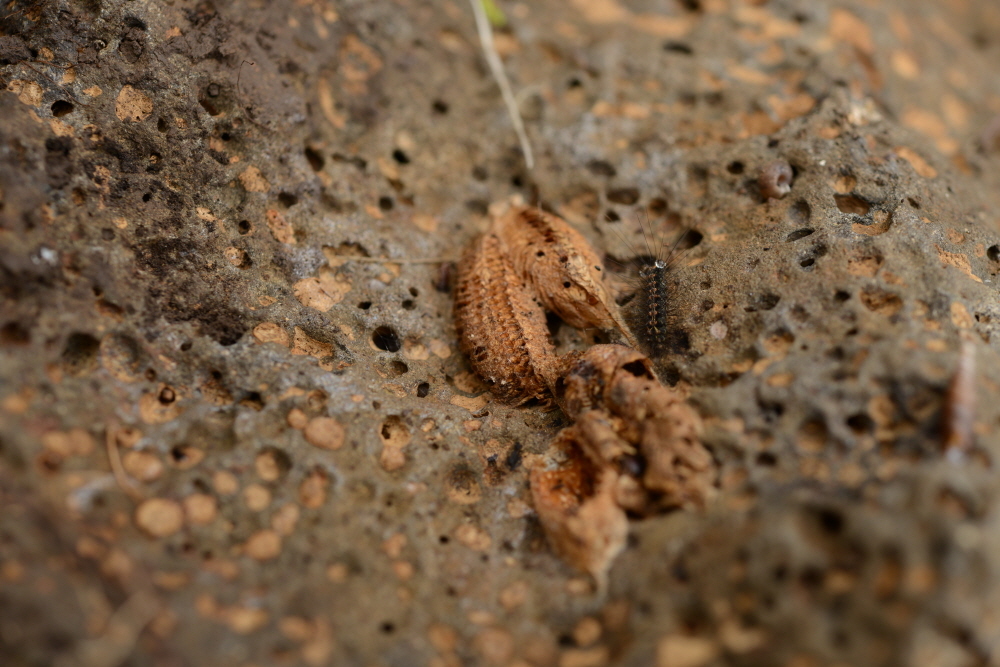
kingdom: Animalia
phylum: Arthropoda
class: Insecta
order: Mantodea
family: Mantidae
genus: Statilia
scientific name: Statilia maculata
